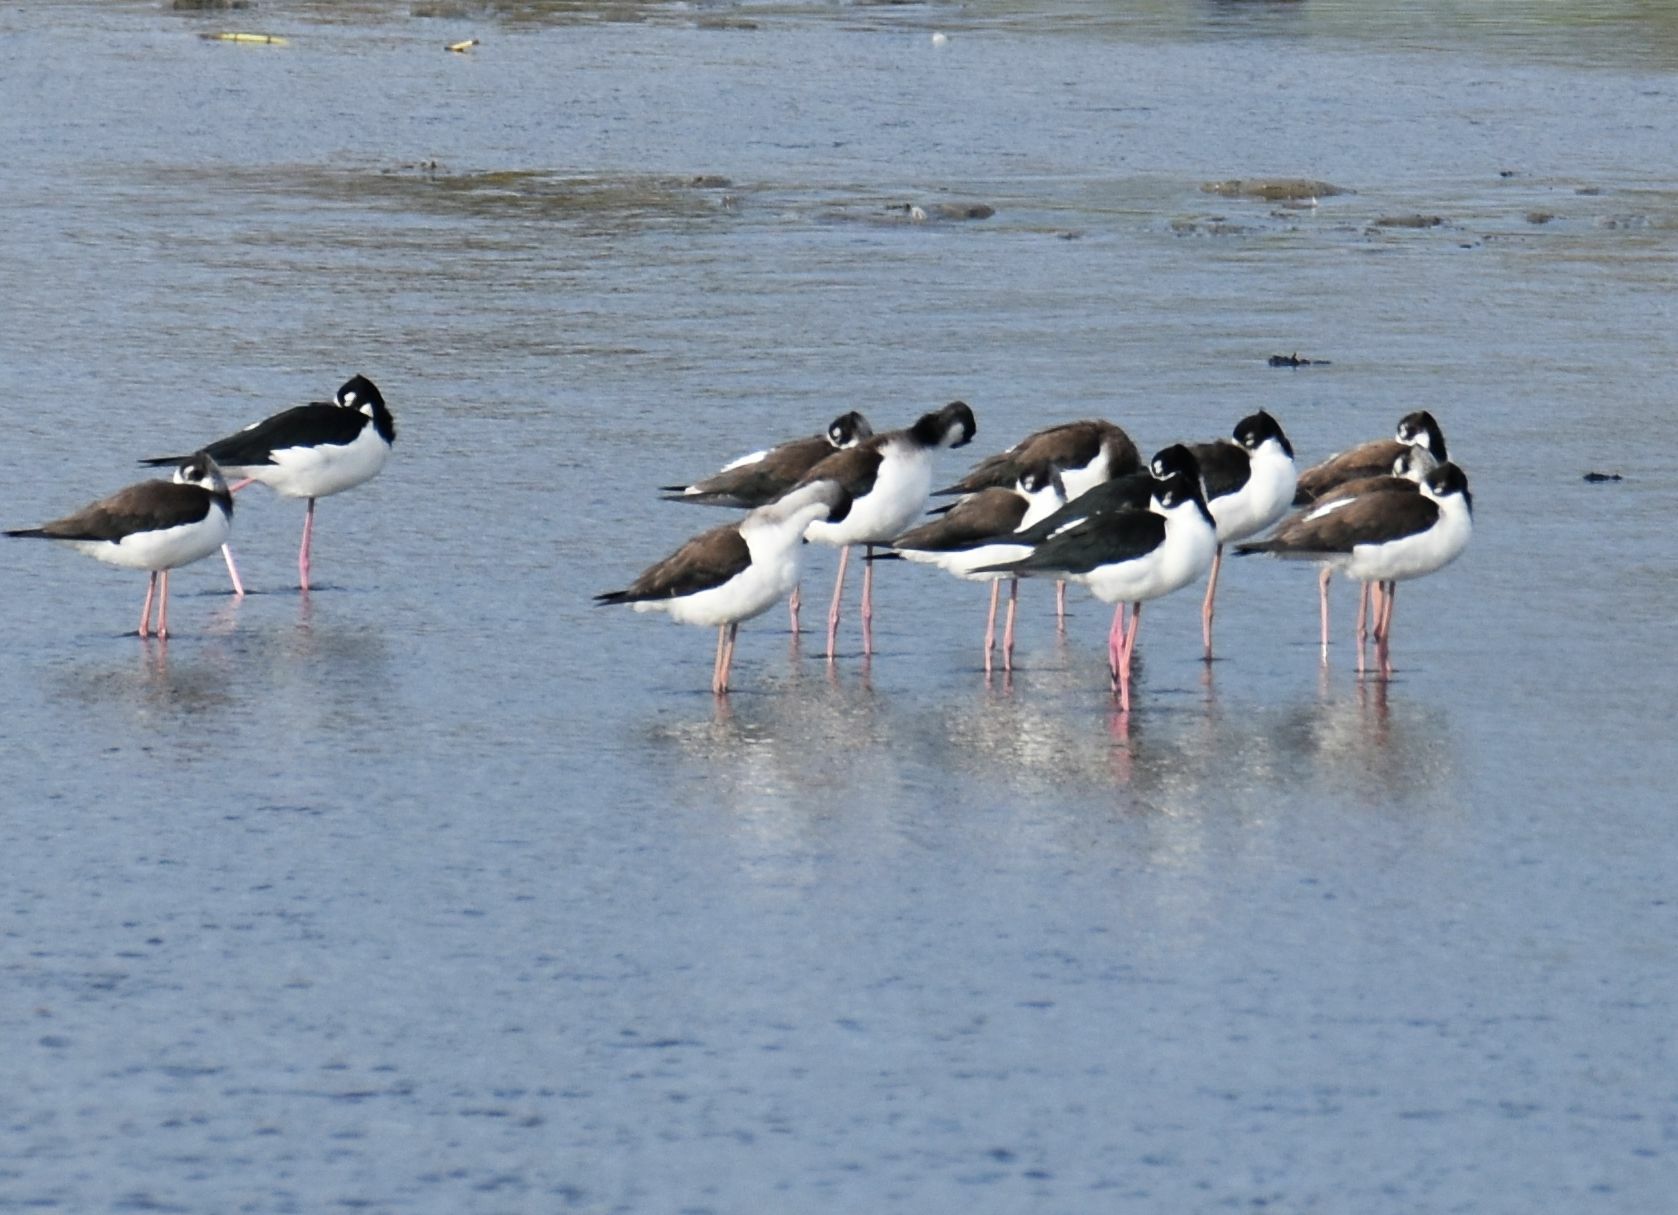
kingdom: Animalia
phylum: Chordata
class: Aves
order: Charadriiformes
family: Recurvirostridae
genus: Himantopus
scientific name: Himantopus mexicanus
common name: Black-necked stilt
